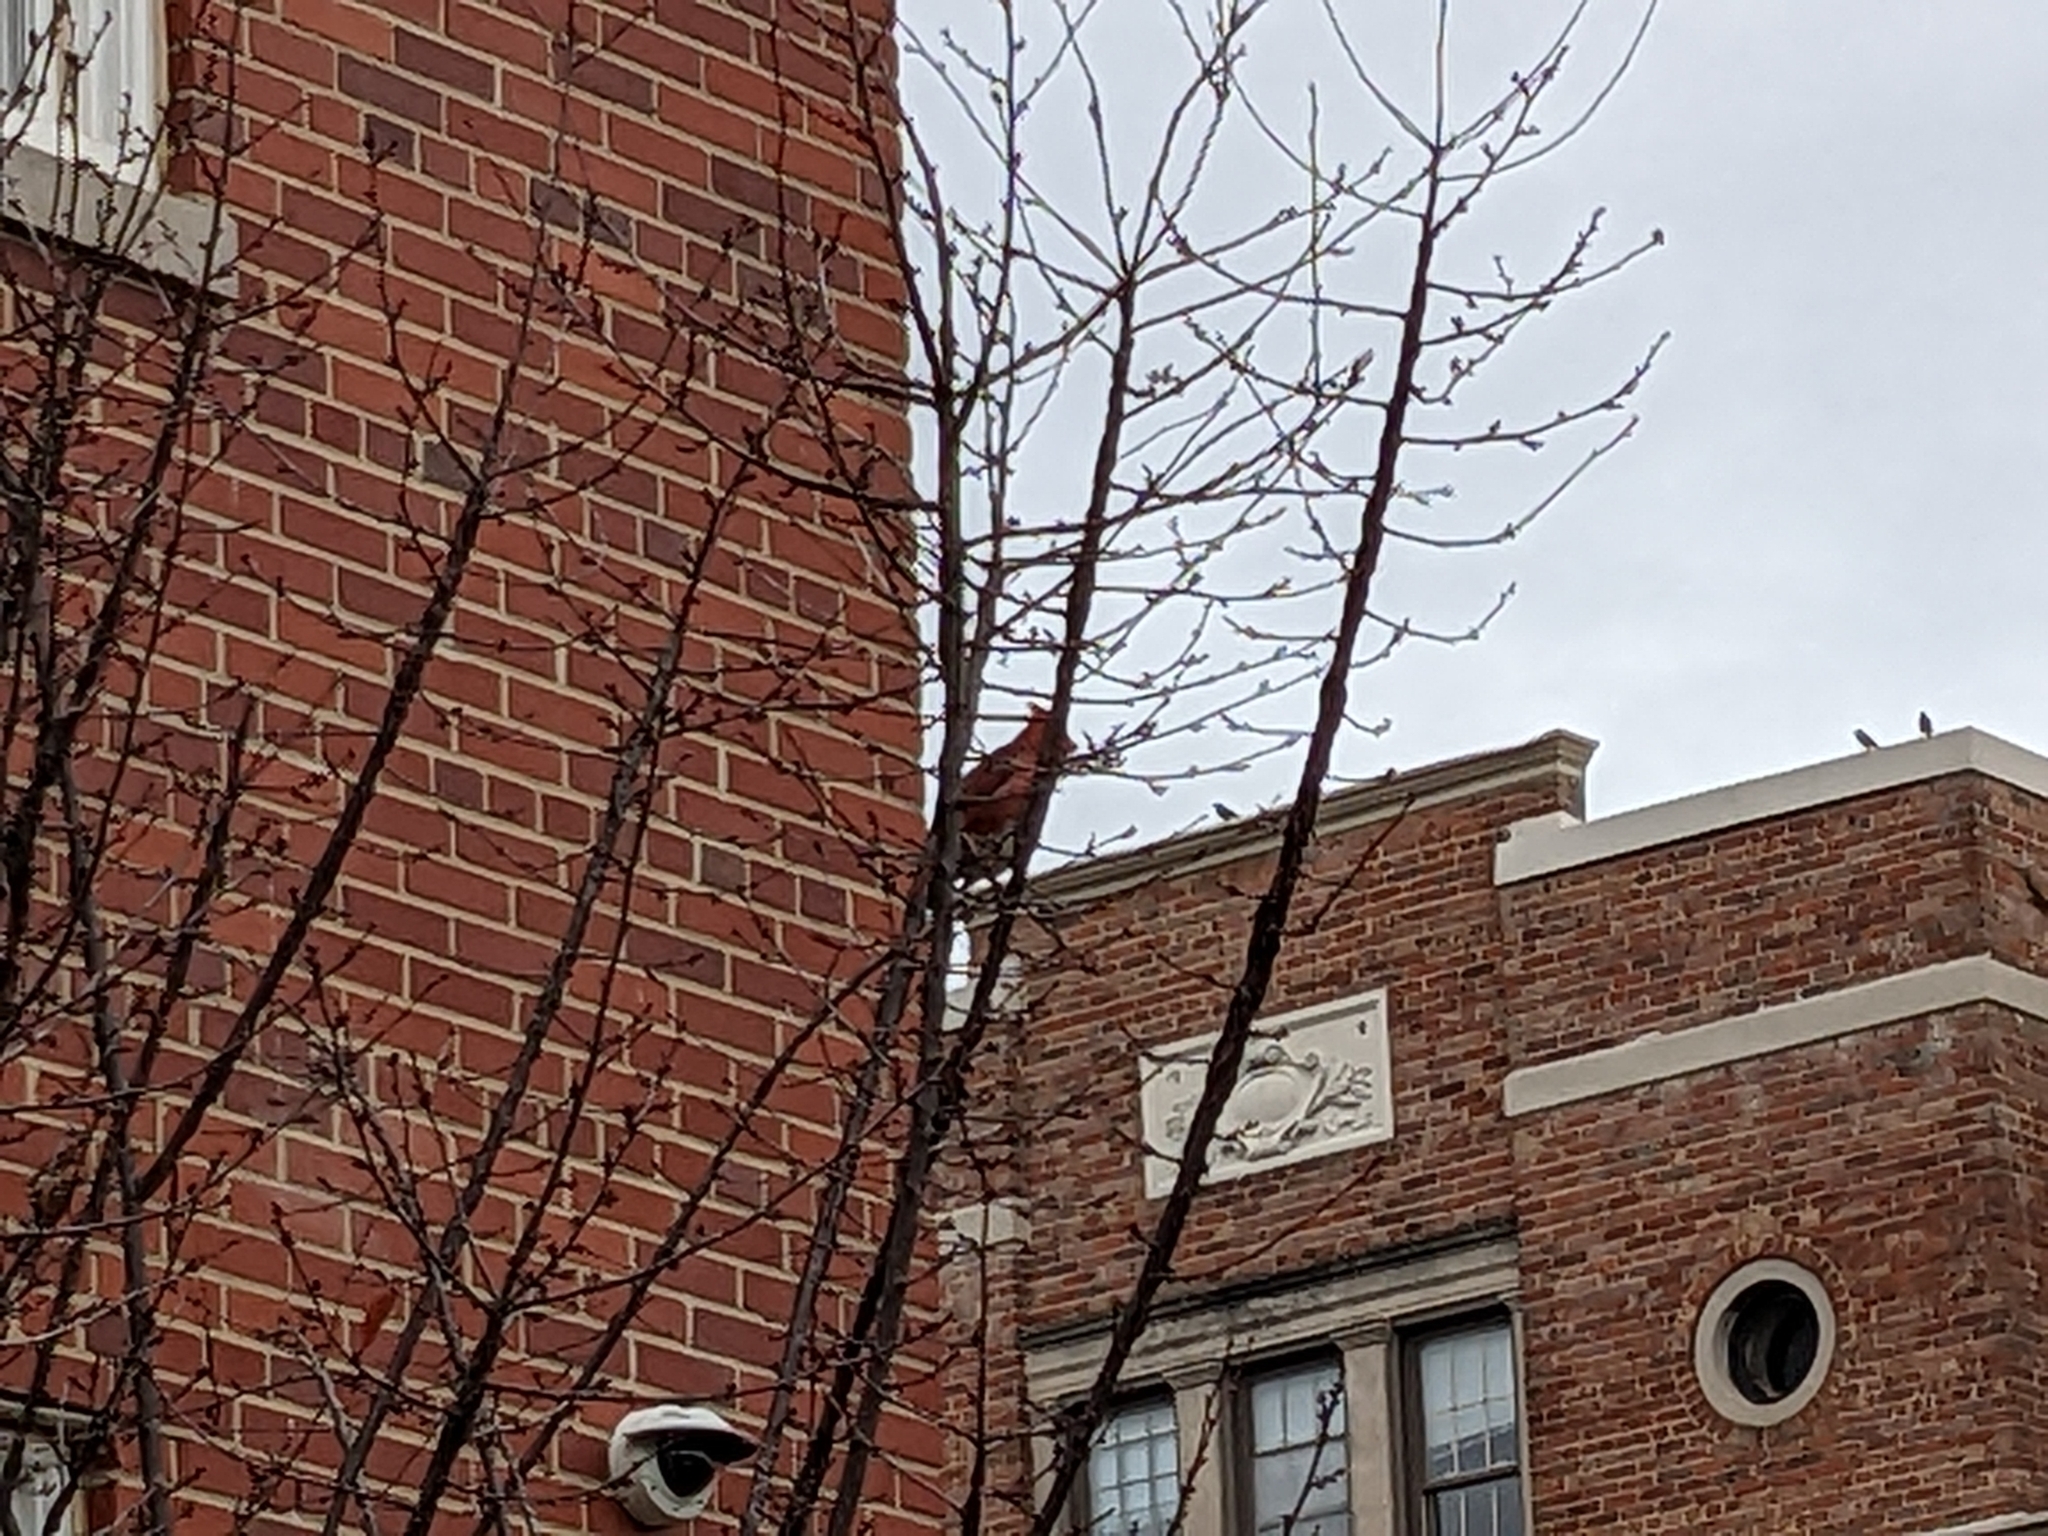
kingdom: Animalia
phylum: Chordata
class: Aves
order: Passeriformes
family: Cardinalidae
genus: Cardinalis
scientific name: Cardinalis cardinalis
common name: Northern cardinal
